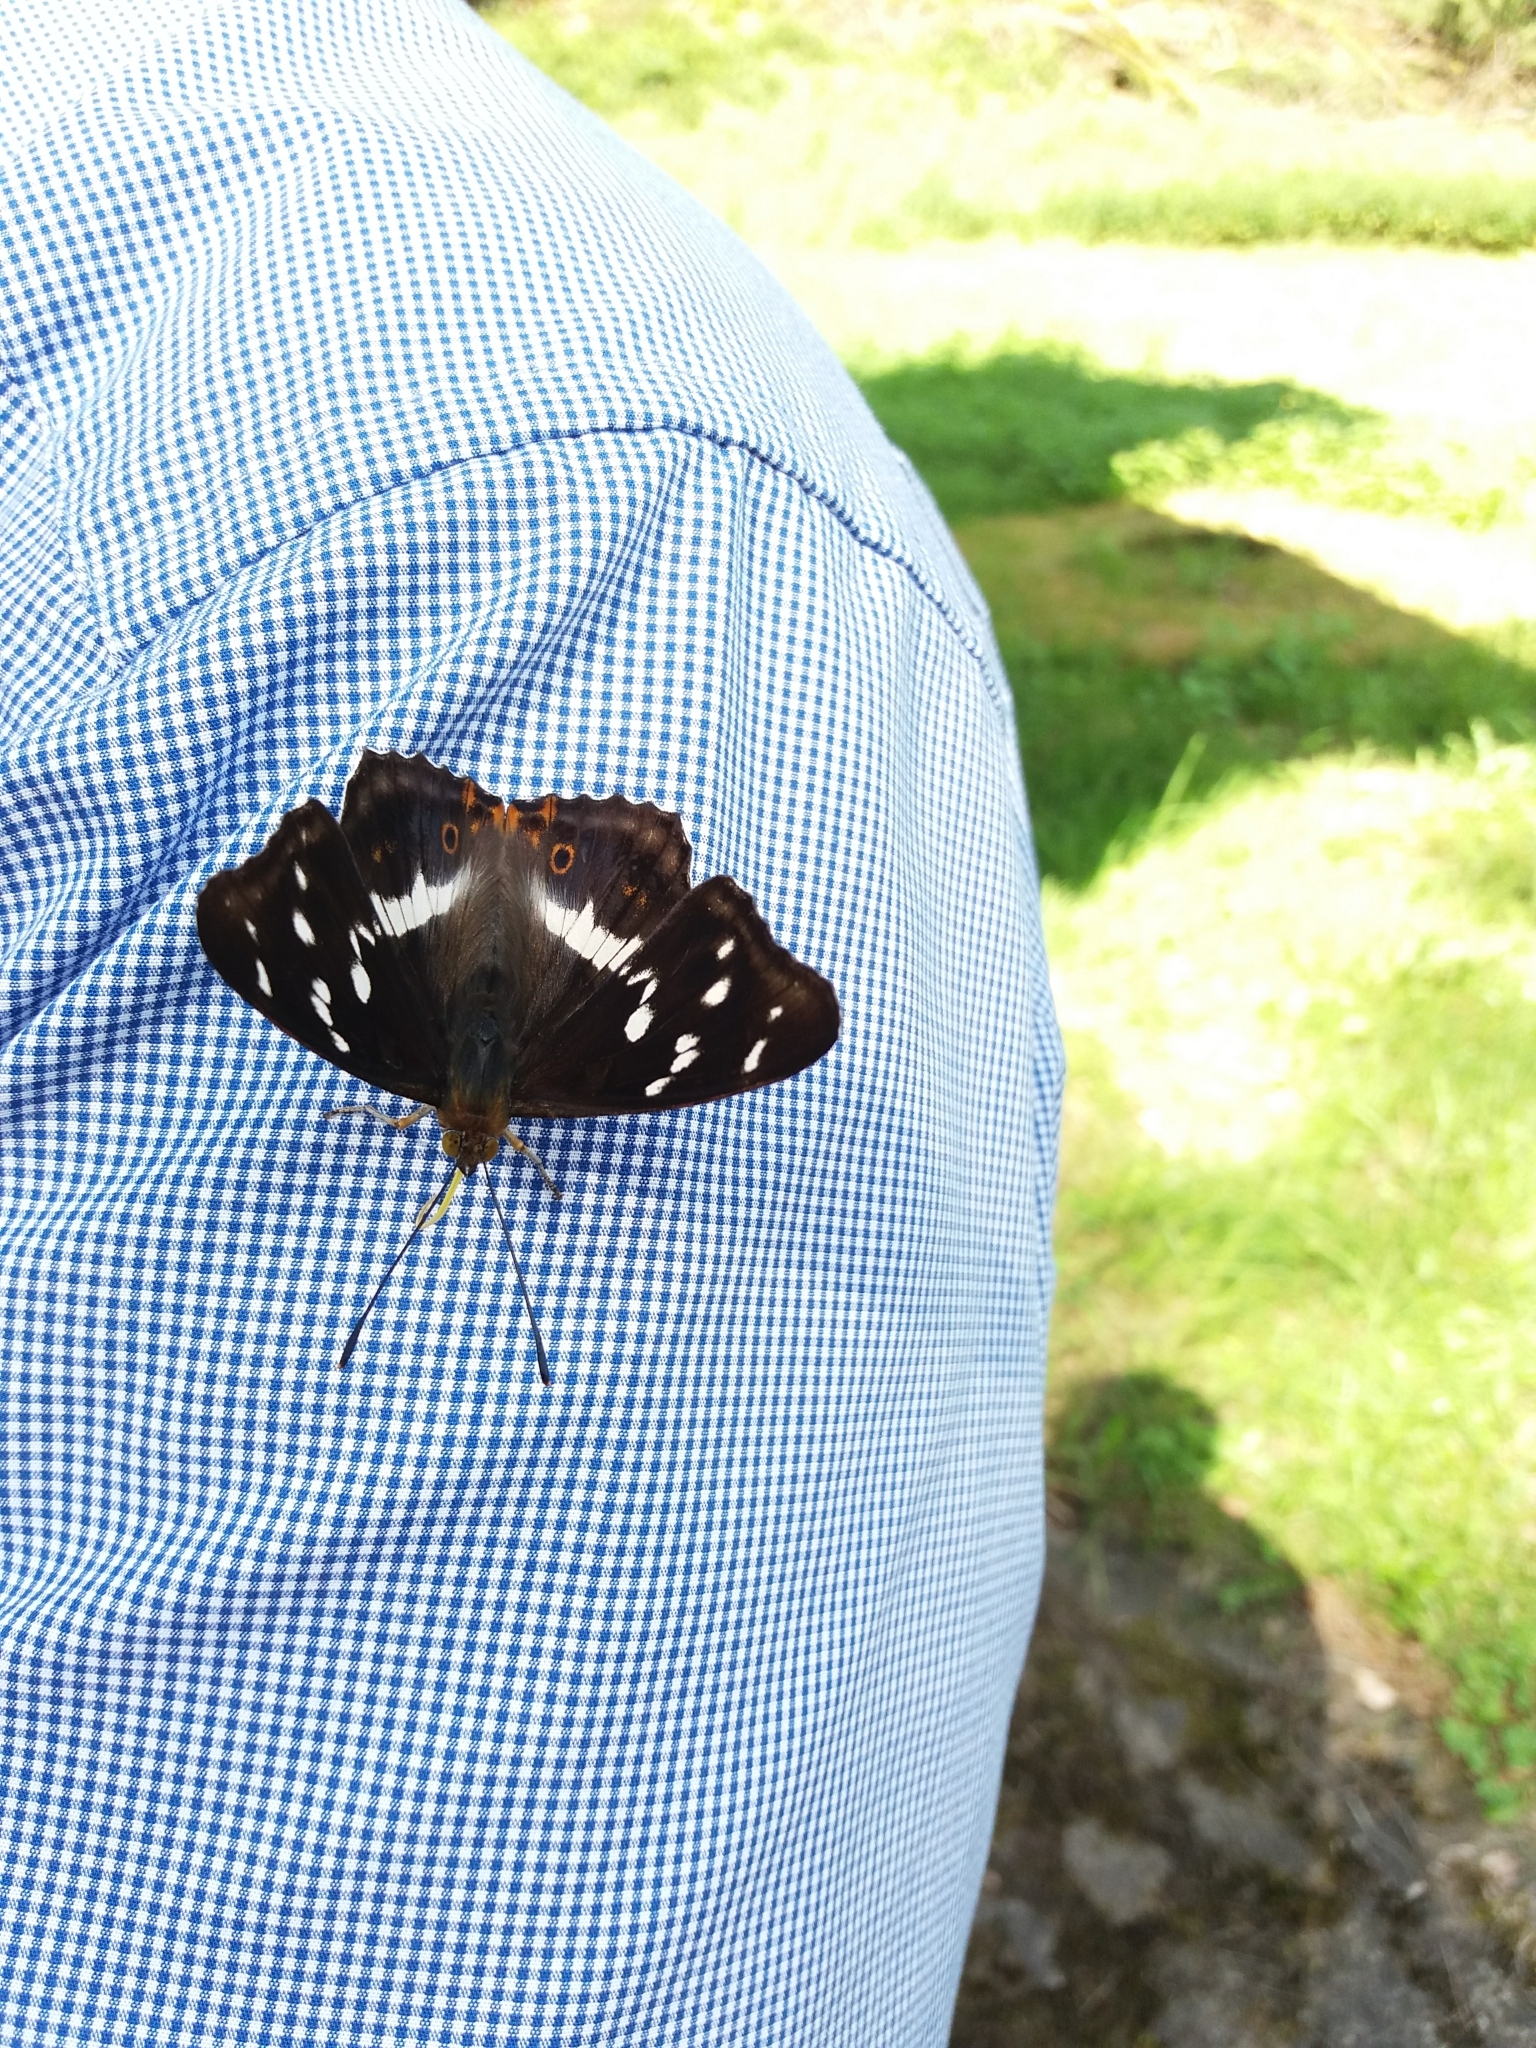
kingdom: Animalia
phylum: Arthropoda
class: Insecta
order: Lepidoptera
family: Nymphalidae
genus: Apatura
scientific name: Apatura iris
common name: Purple emperor
